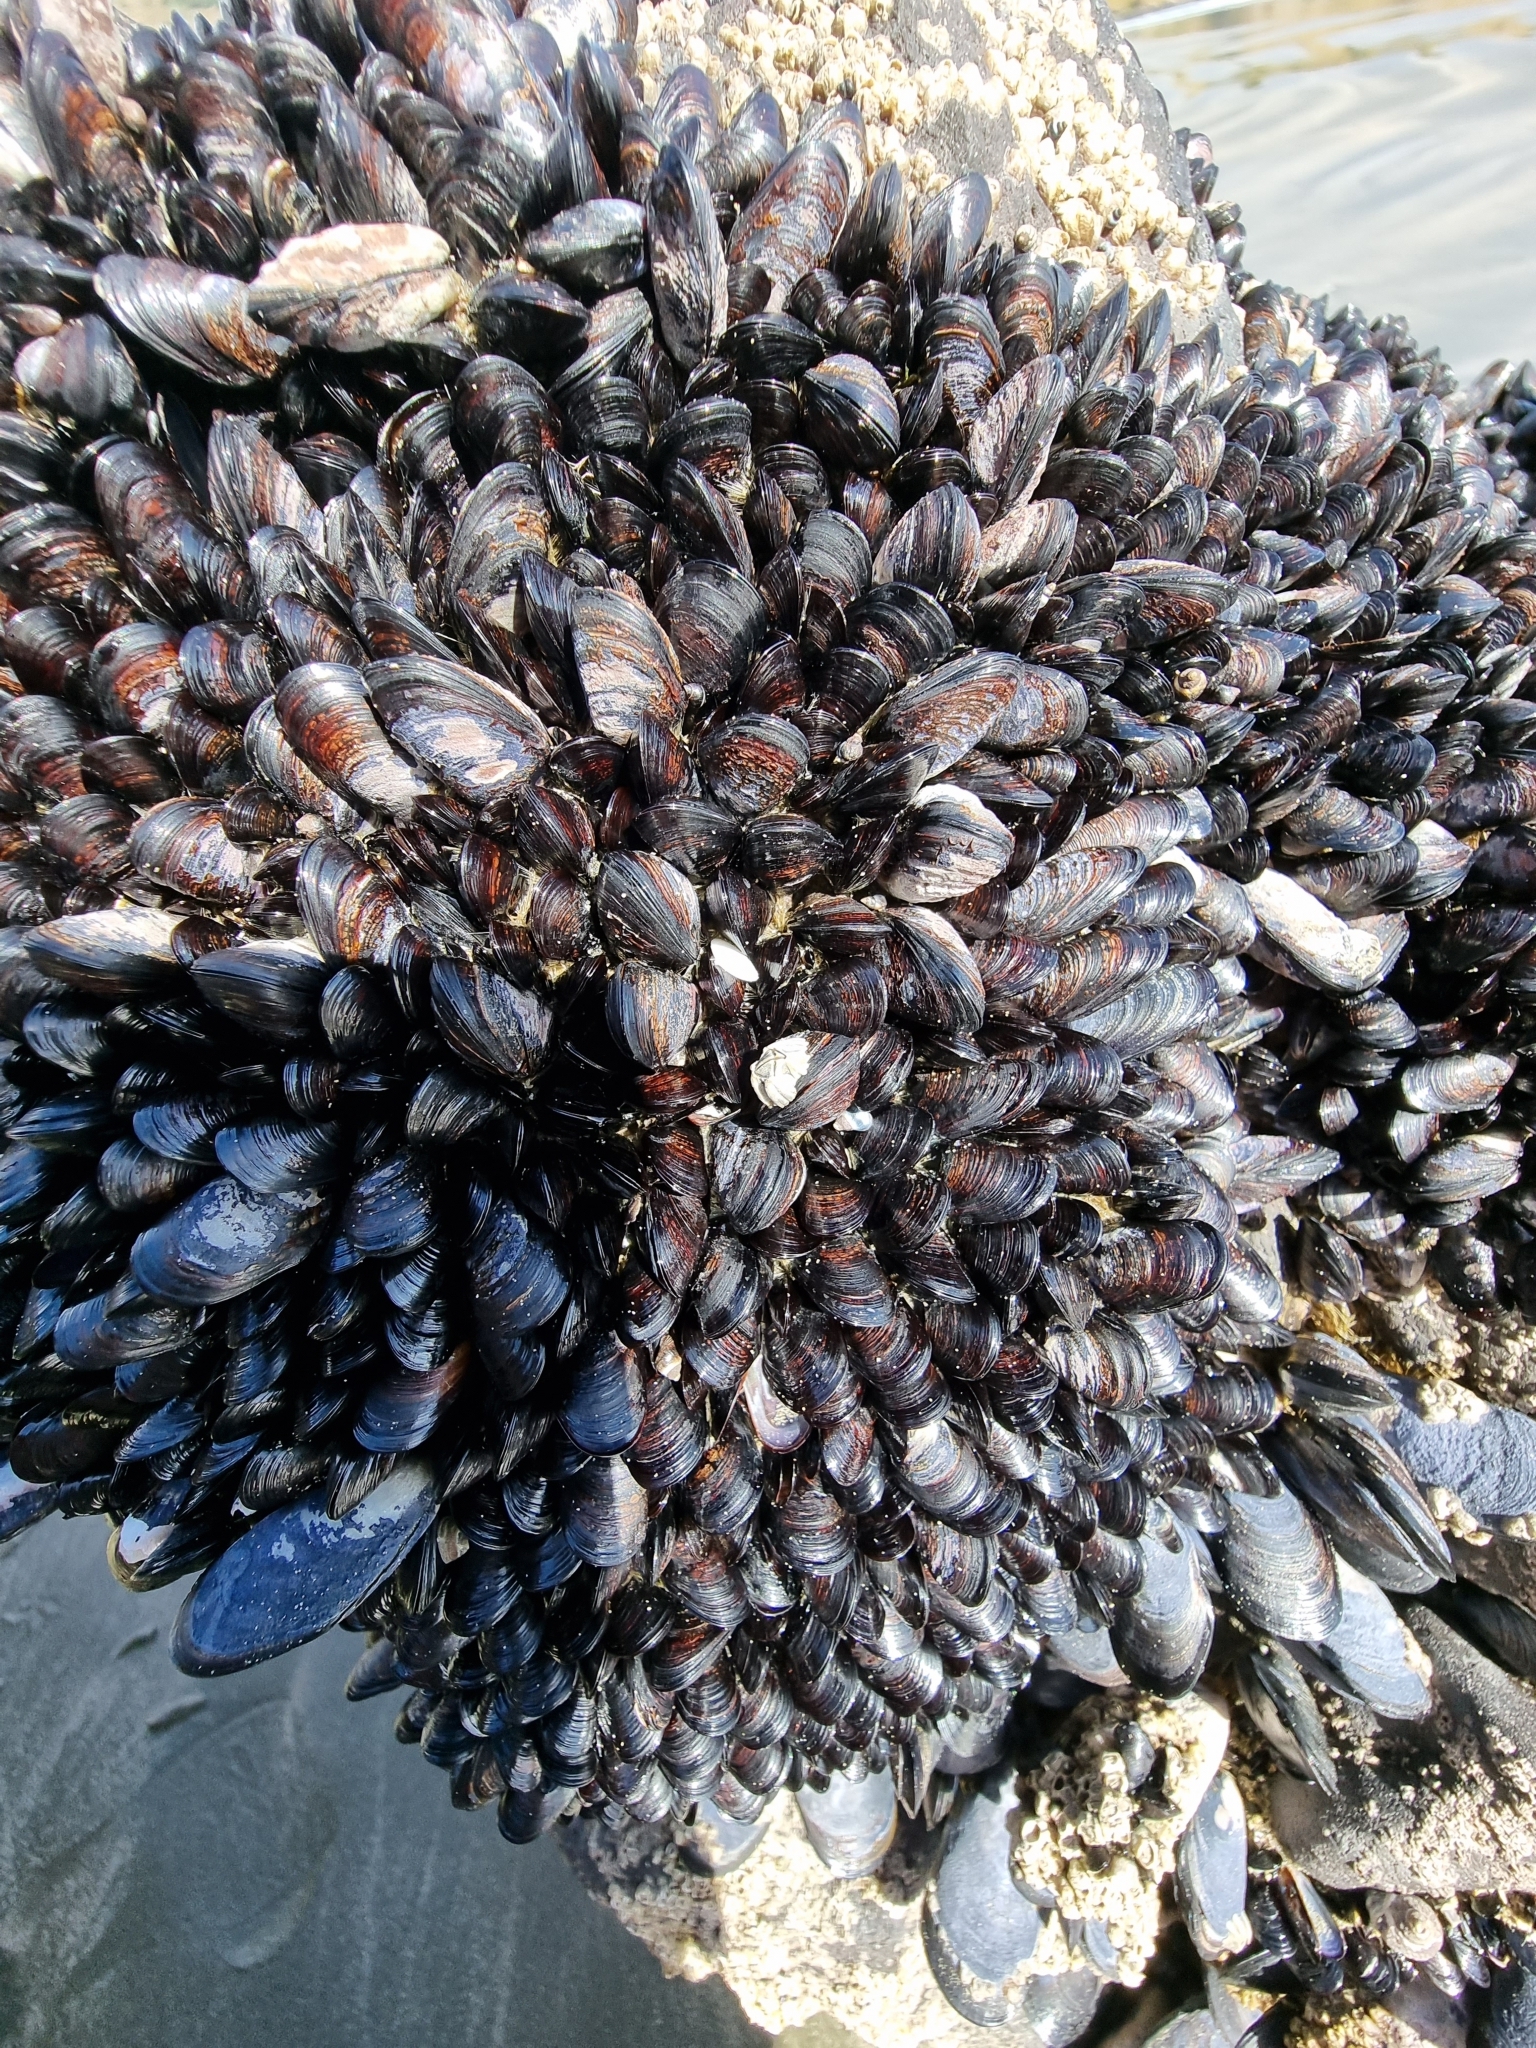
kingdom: Animalia
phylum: Mollusca
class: Bivalvia
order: Mytilida
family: Mytilidae
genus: Xenostrobus
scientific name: Xenostrobus neozelanicus
